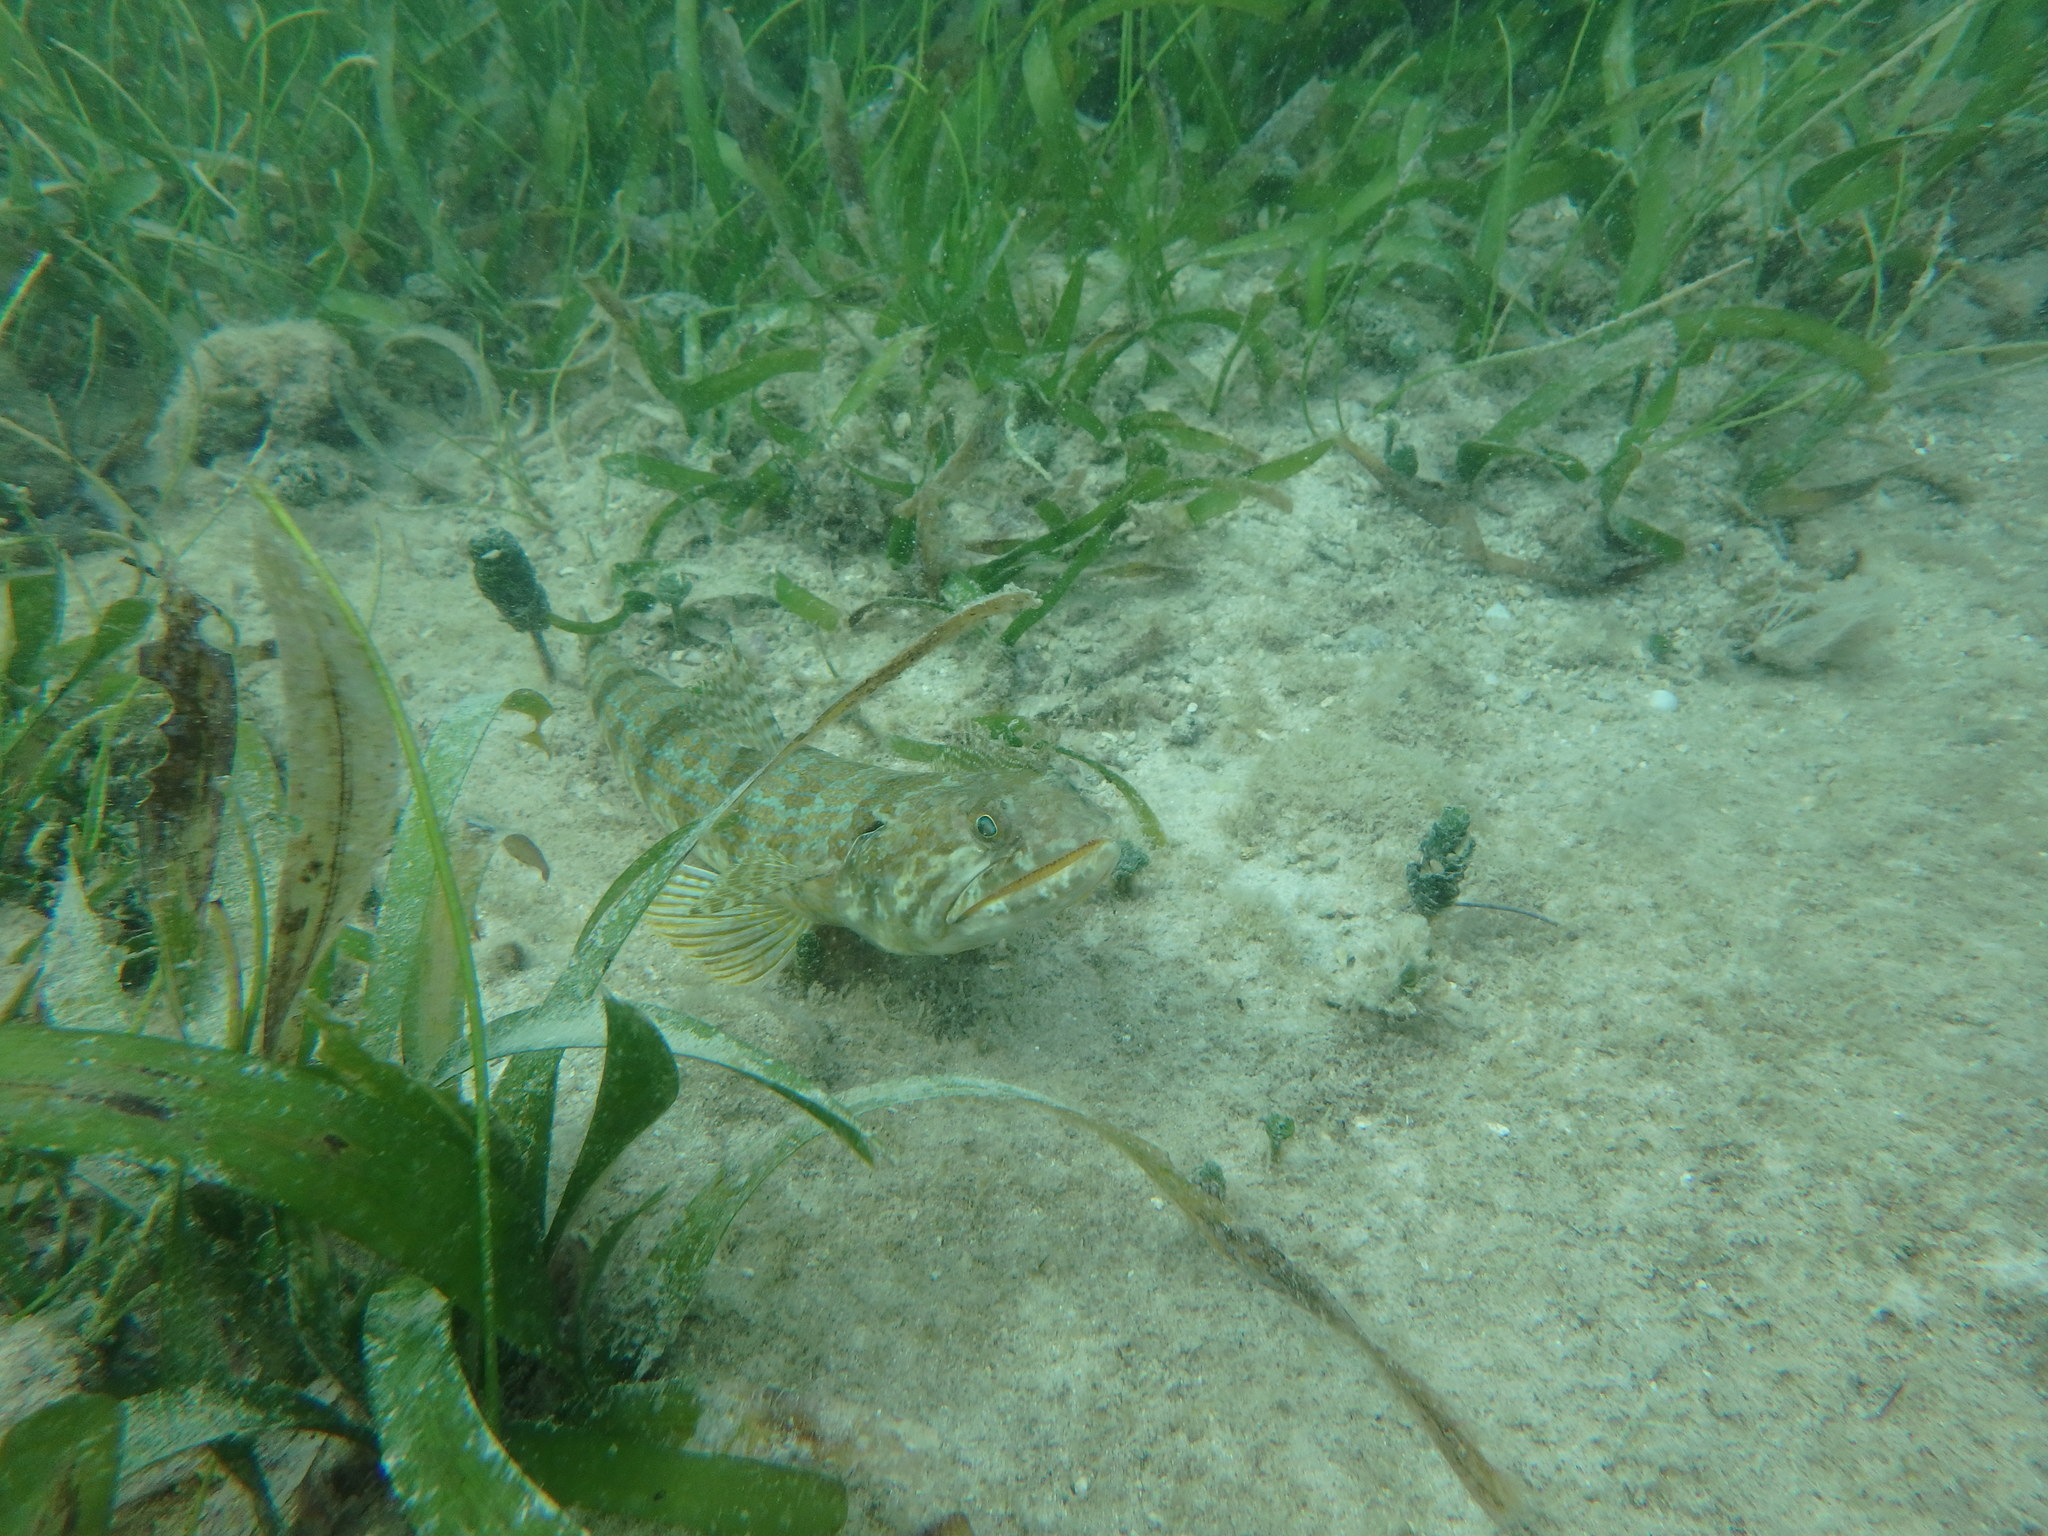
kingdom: Animalia
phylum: Chordata
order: Aulopiformes
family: Synodontidae
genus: Synodus
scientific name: Synodus intermedius
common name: Sand diver
